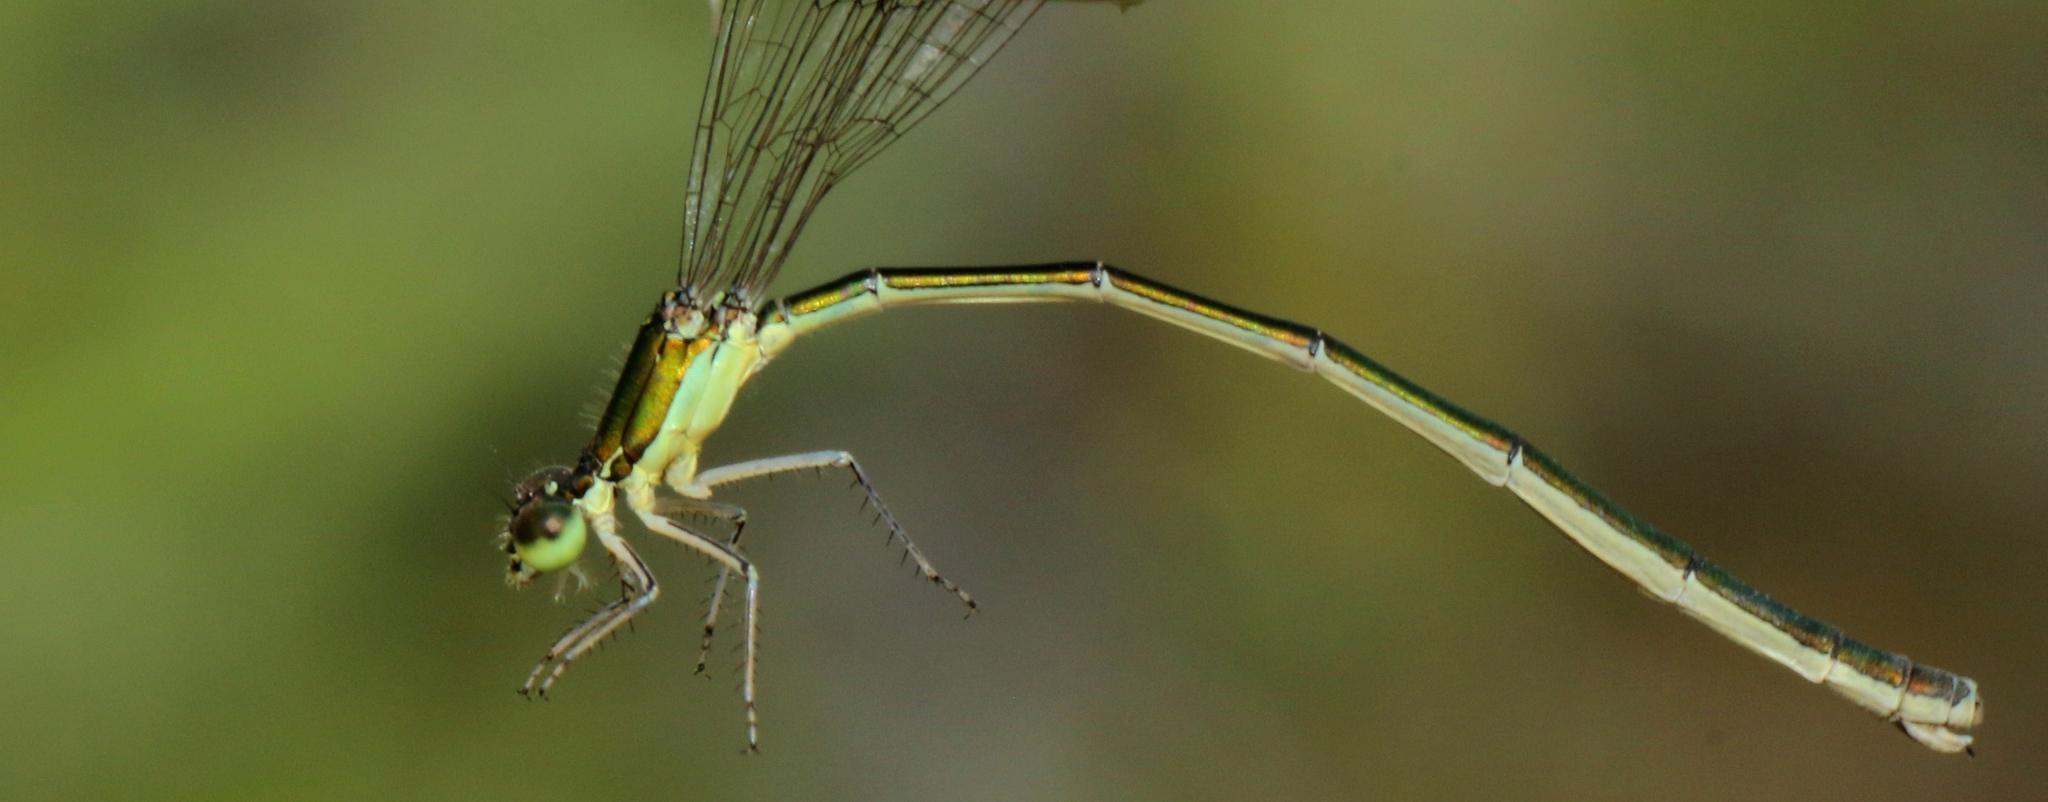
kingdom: Animalia
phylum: Arthropoda
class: Insecta
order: Odonata
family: Coenagrionidae
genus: Nehalennia
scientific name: Nehalennia irene
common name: Sedge sprite
